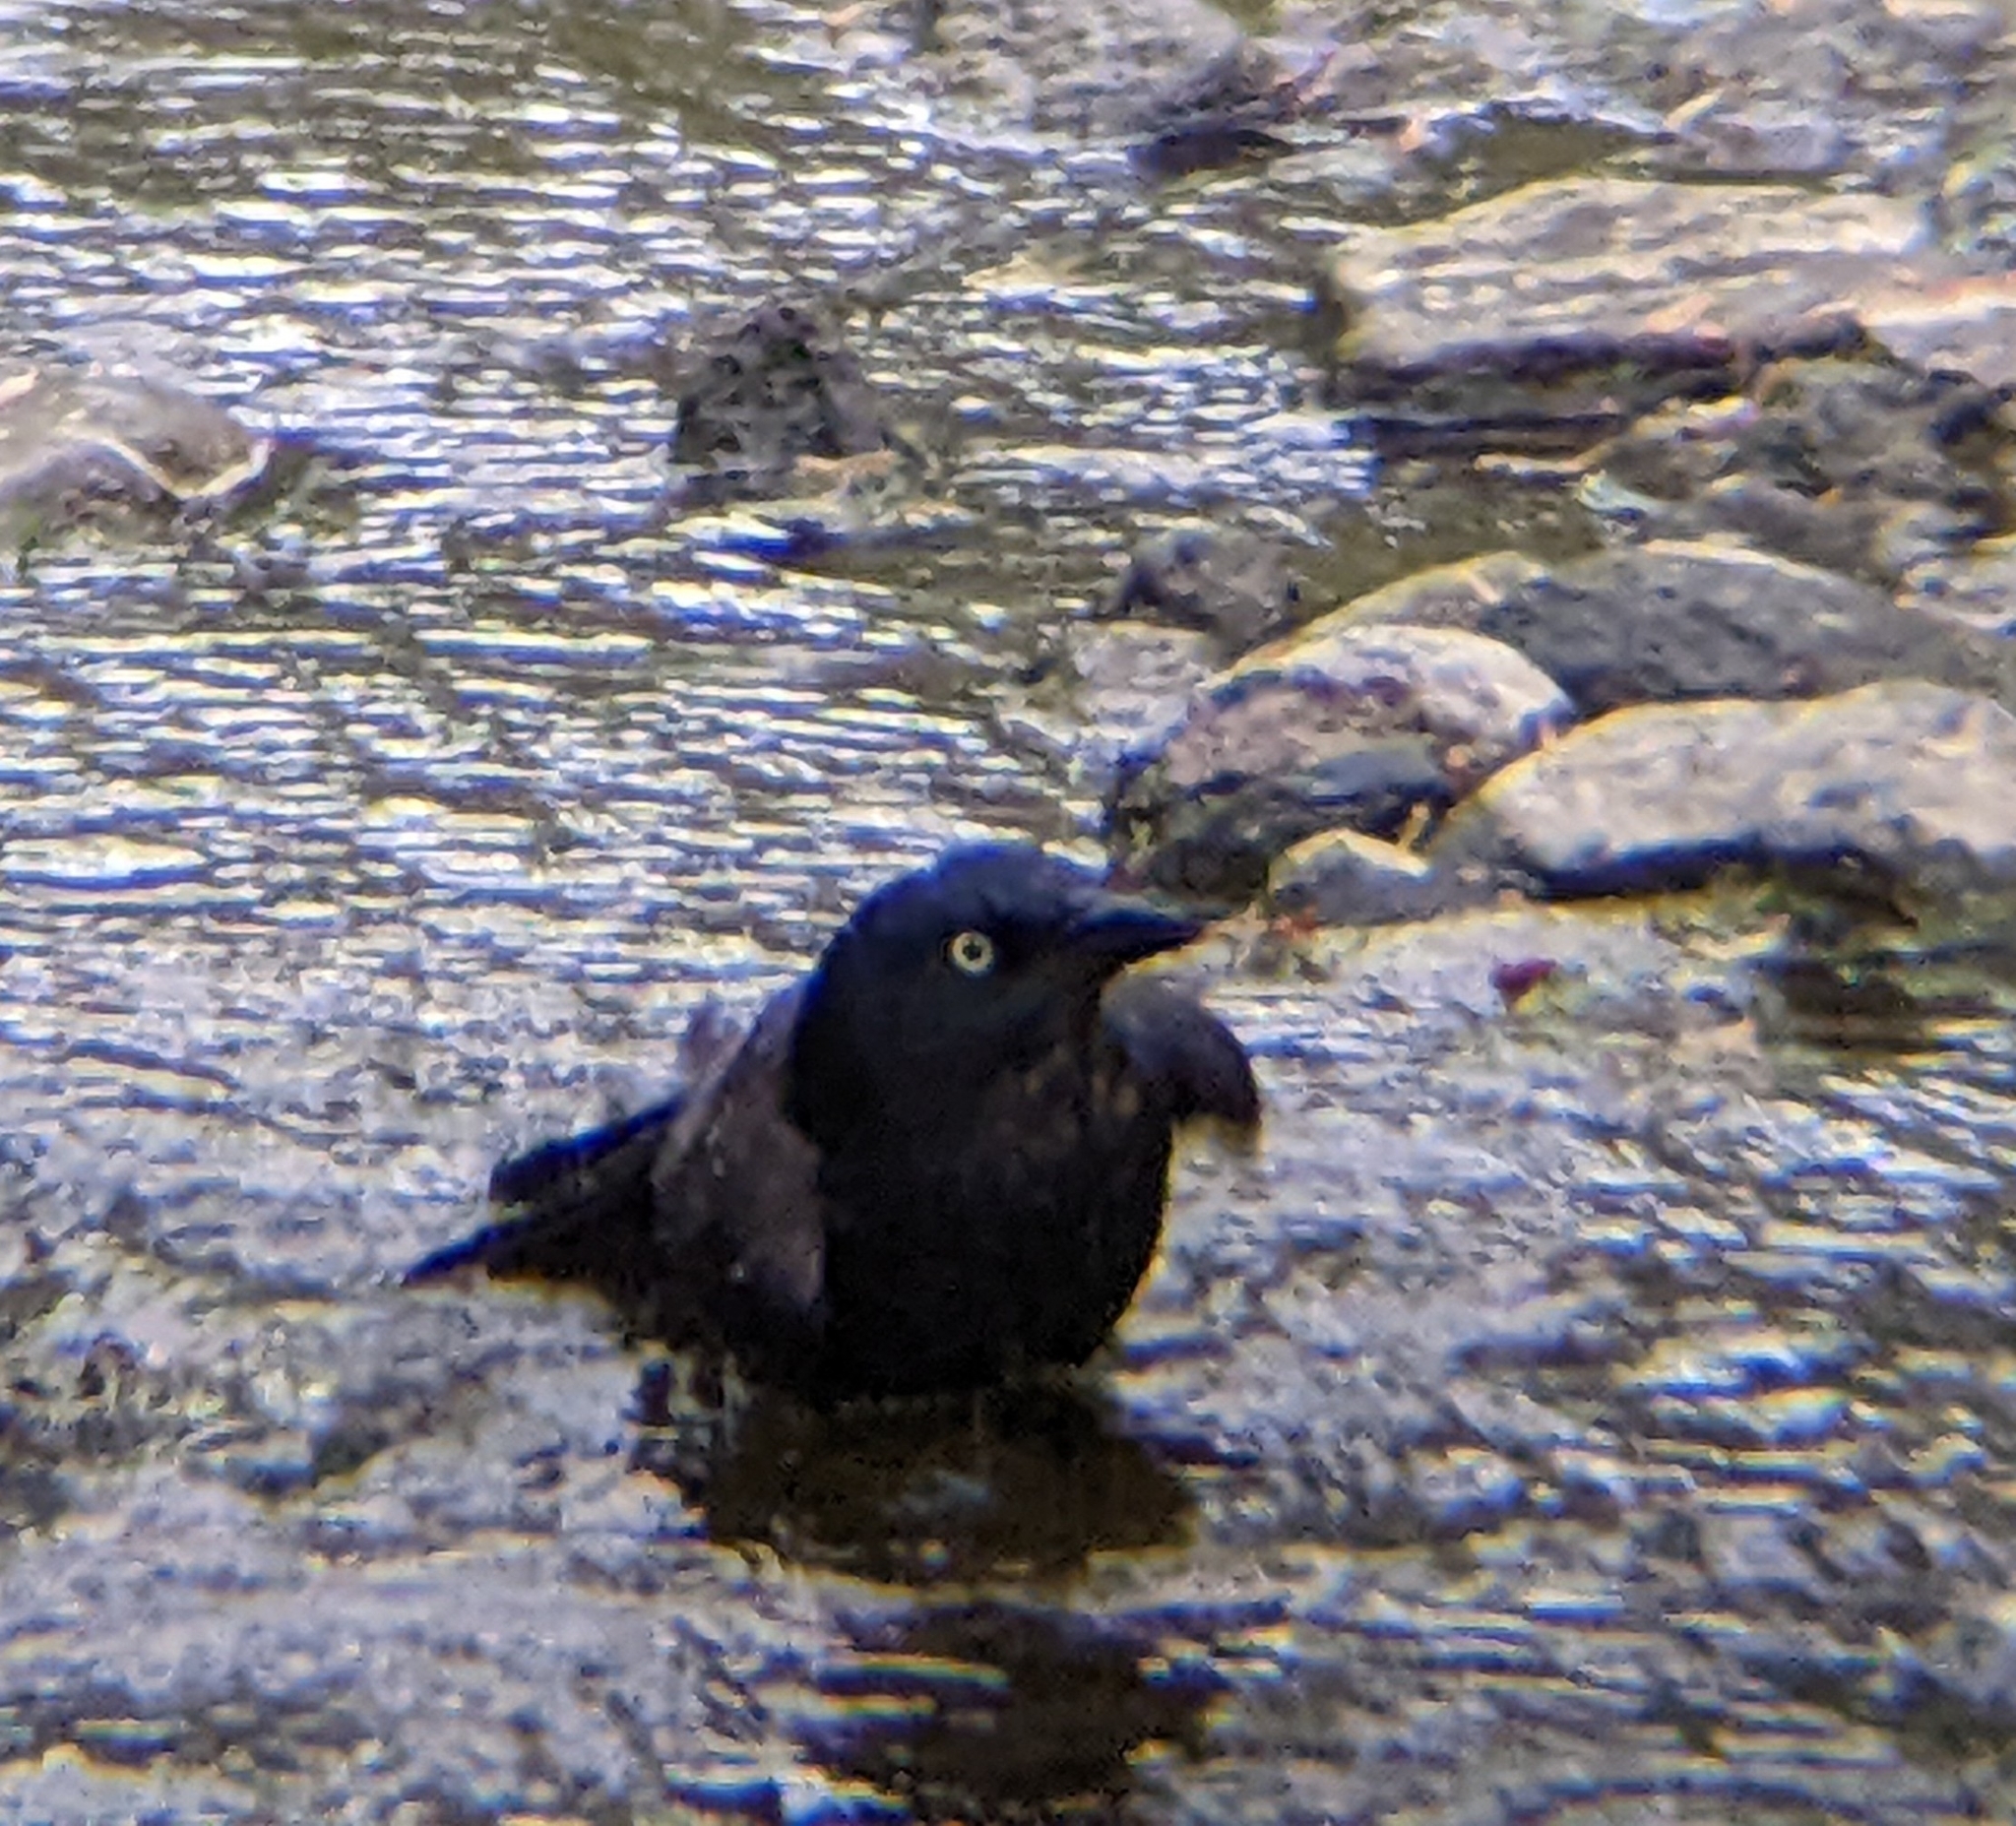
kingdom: Animalia
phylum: Chordata
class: Aves
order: Passeriformes
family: Icteridae
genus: Quiscalus
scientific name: Quiscalus quiscula
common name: Common grackle
